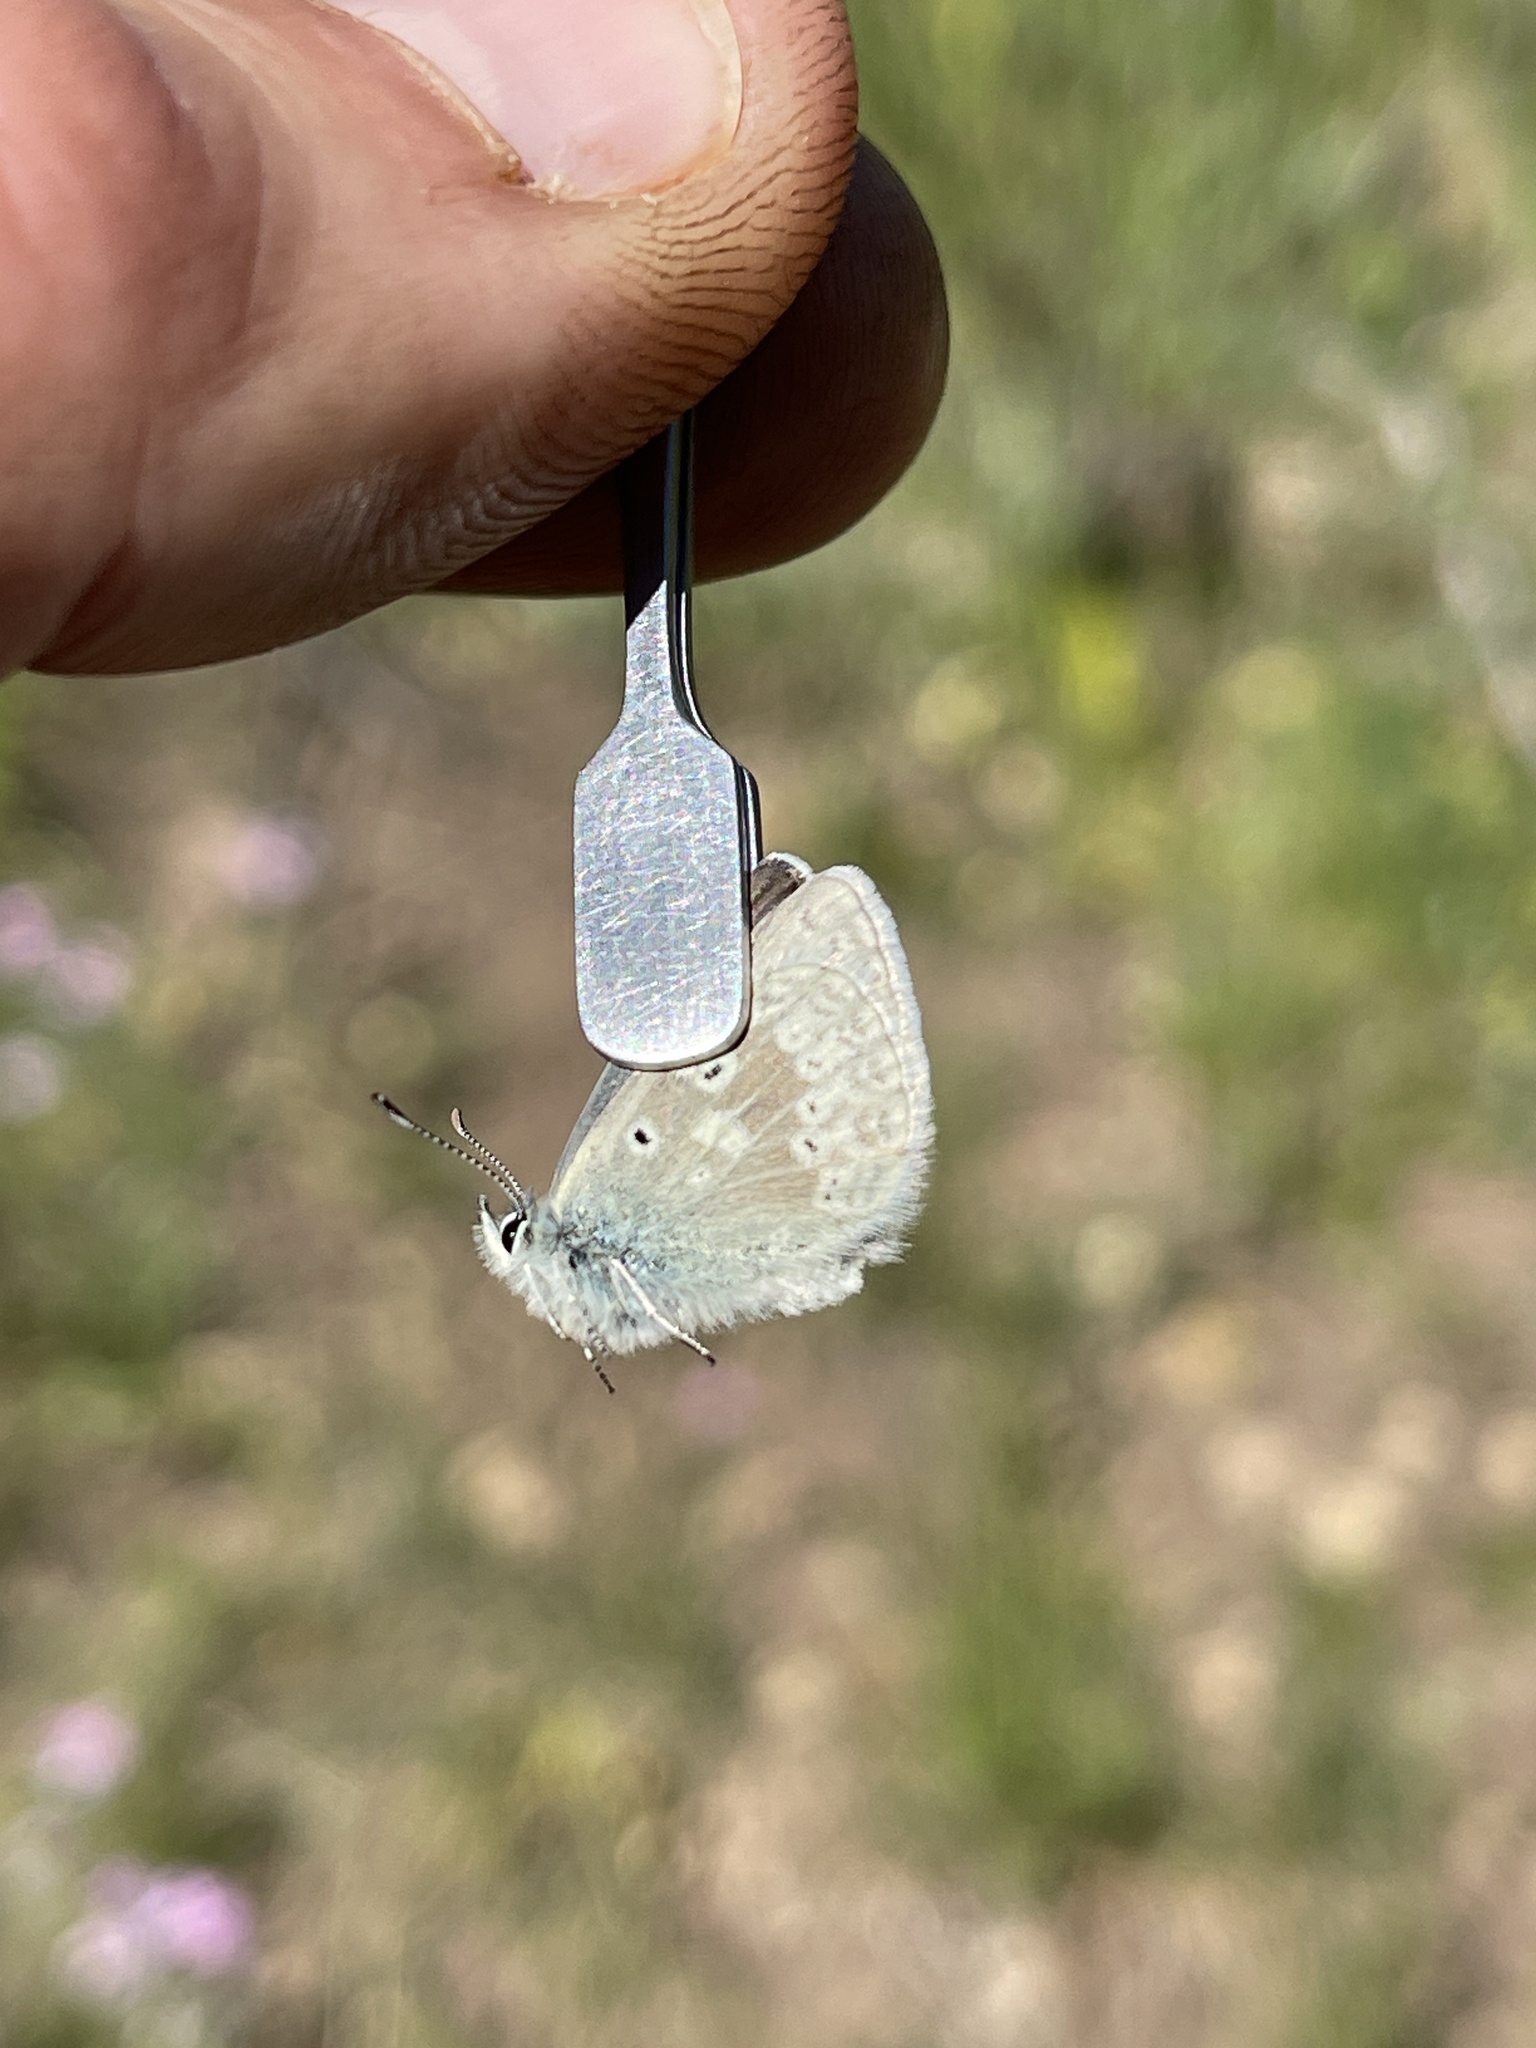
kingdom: Animalia
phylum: Arthropoda
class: Insecta
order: Lepidoptera
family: Lycaenidae
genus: Agriades
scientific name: Agriades glandon
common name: Glandon blue
